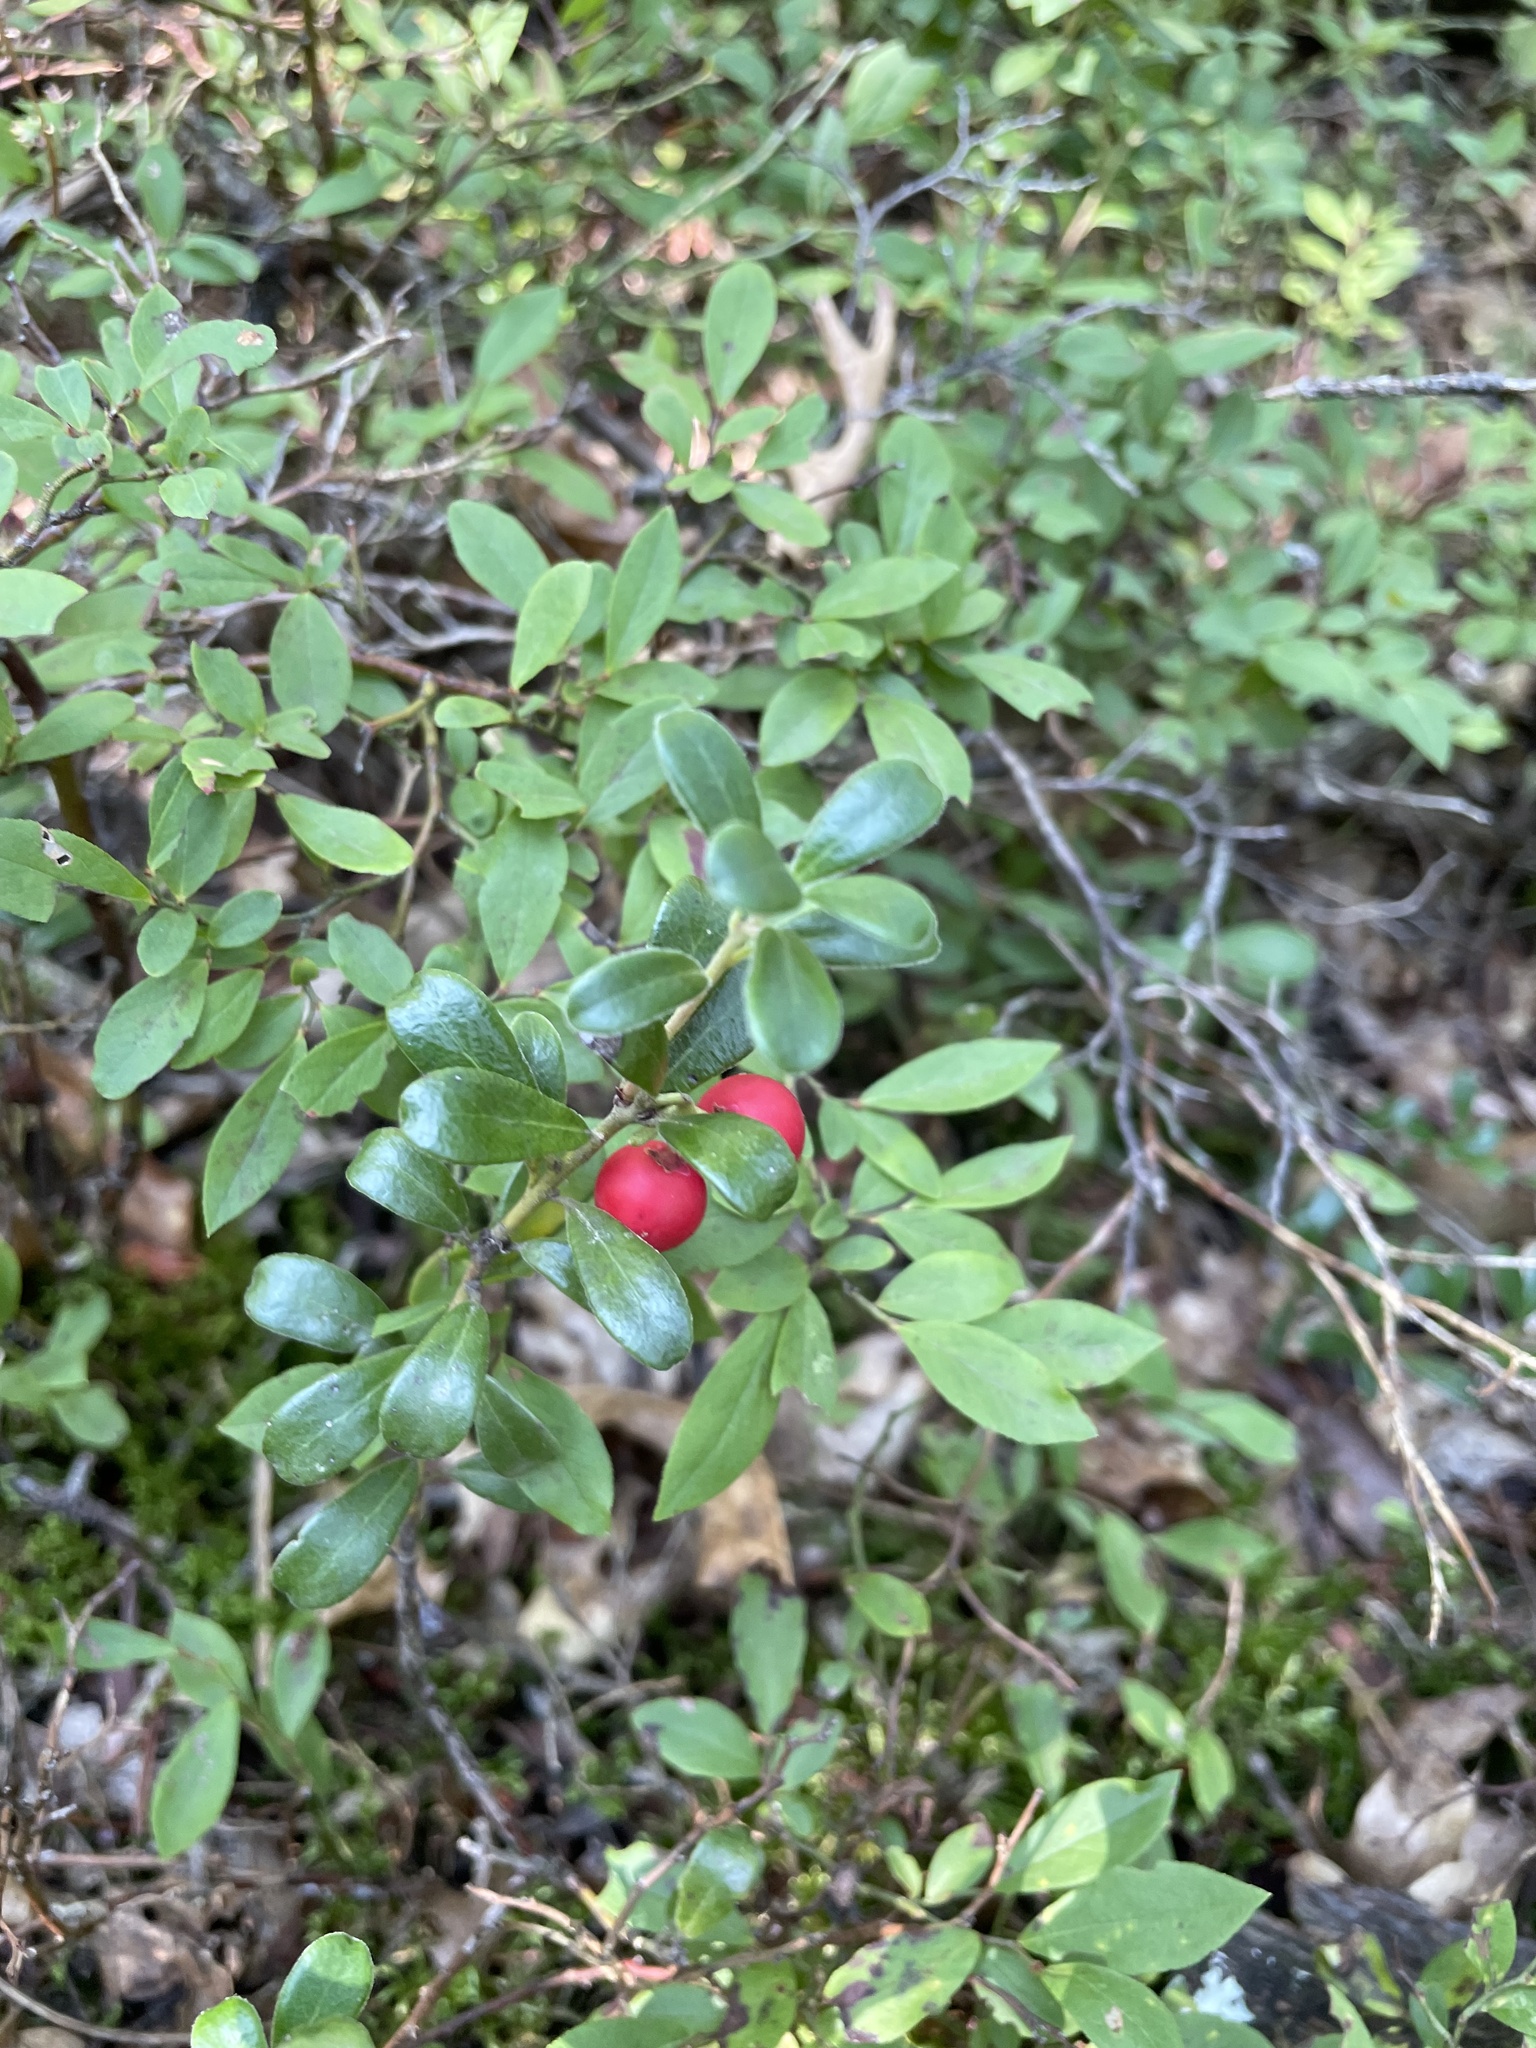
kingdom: Plantae
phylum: Tracheophyta
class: Magnoliopsida
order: Ericales
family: Ericaceae
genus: Arctostaphylos
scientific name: Arctostaphylos uva-ursi
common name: Bearberry
